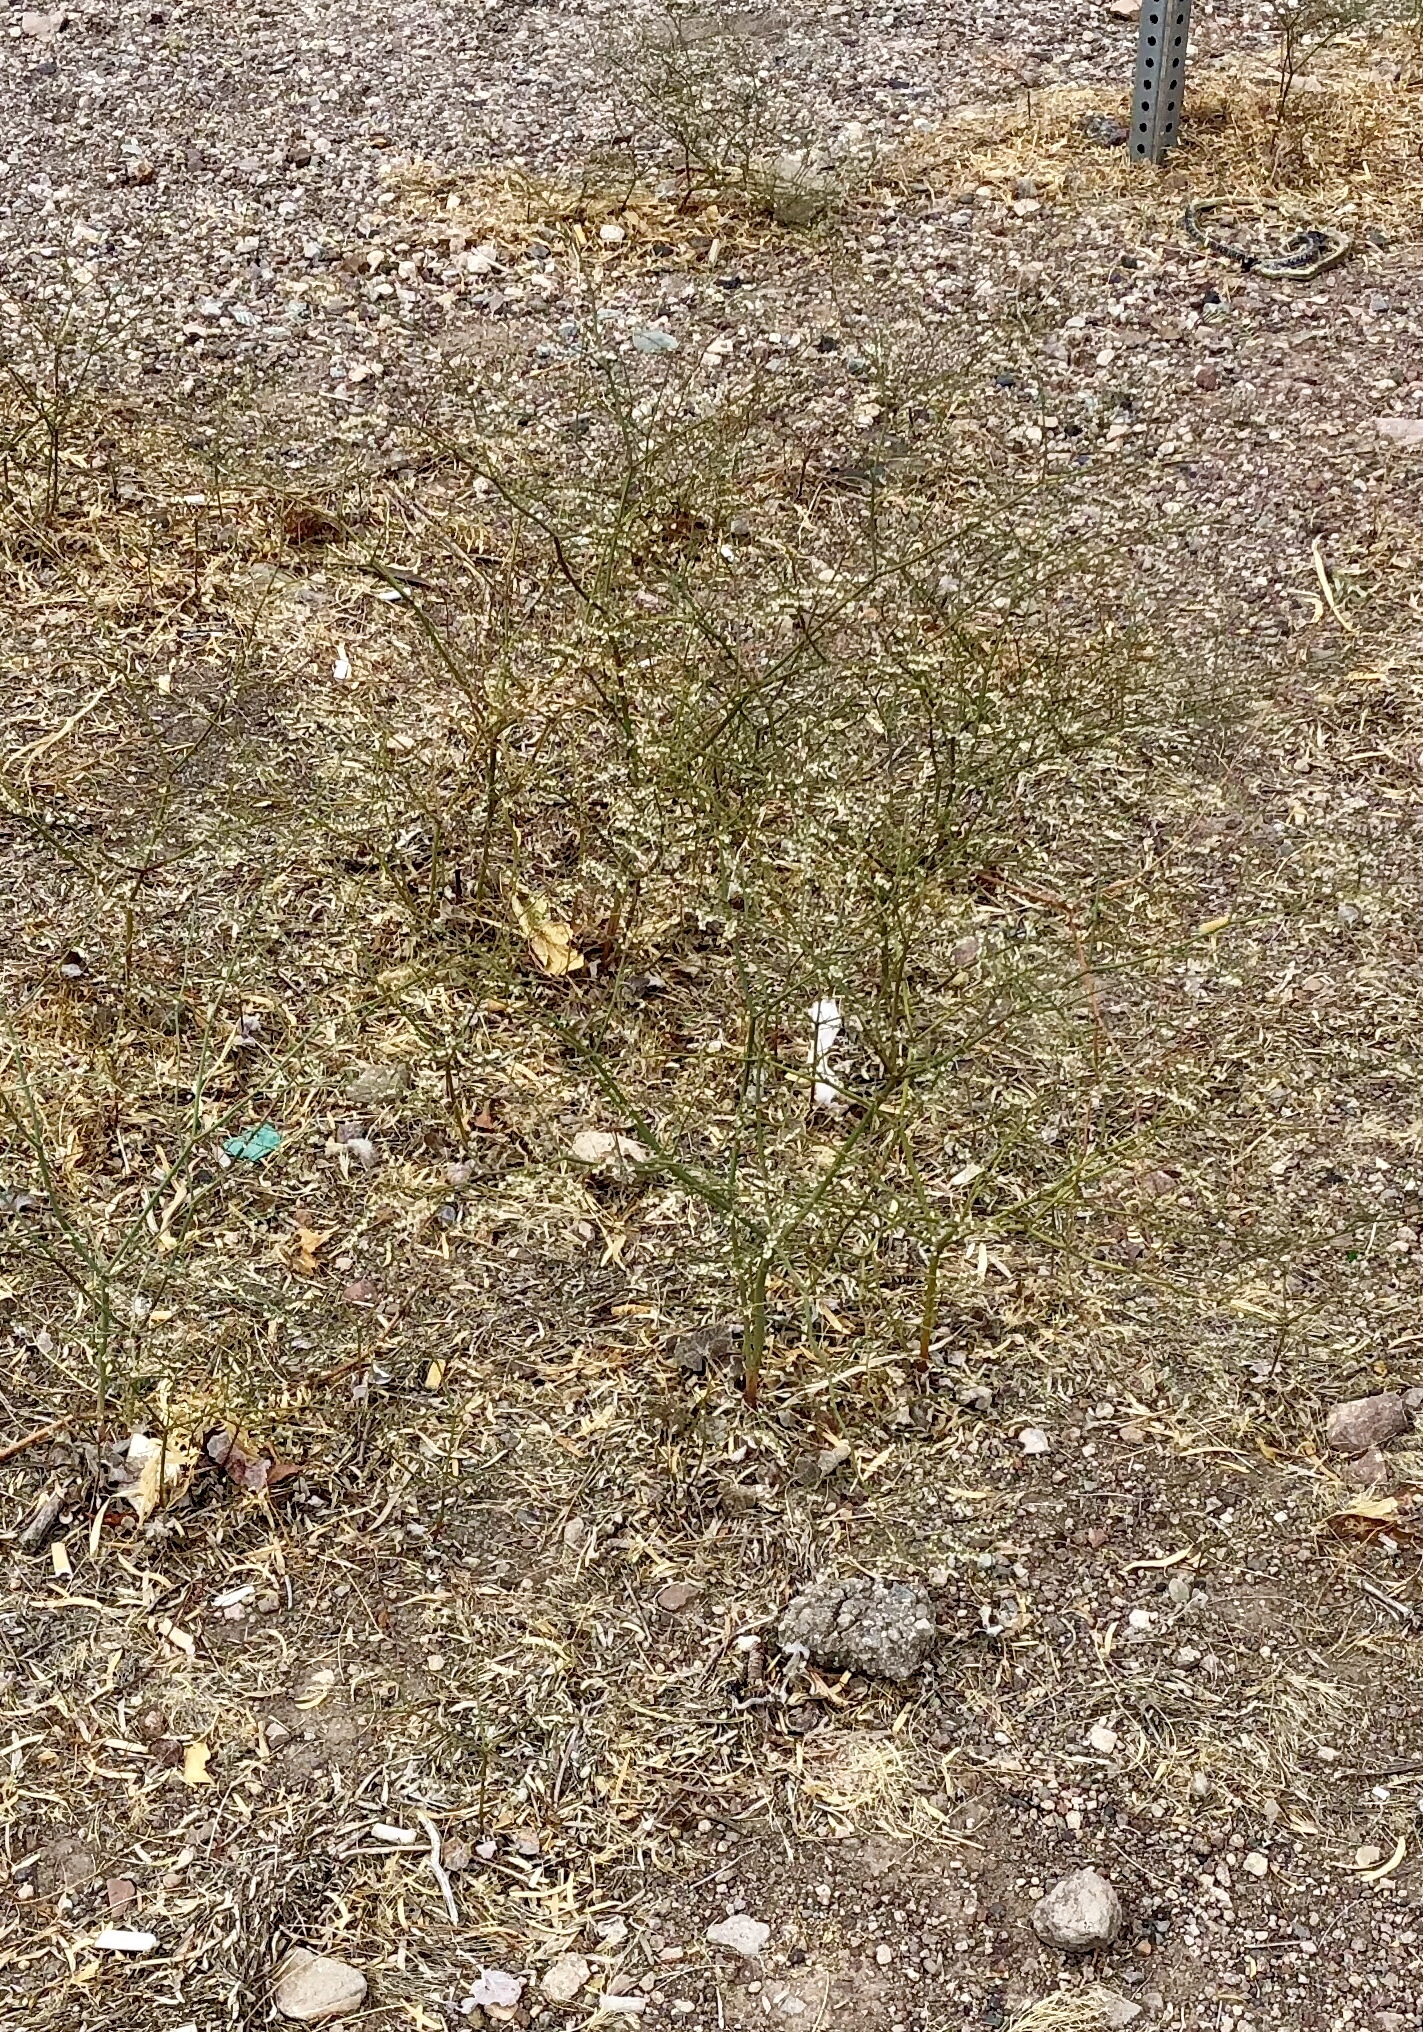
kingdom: Plantae
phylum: Tracheophyta
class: Magnoliopsida
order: Caryophyllales
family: Polygonaceae
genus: Eriogonum
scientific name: Eriogonum deflexum
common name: Skeleton-weed
